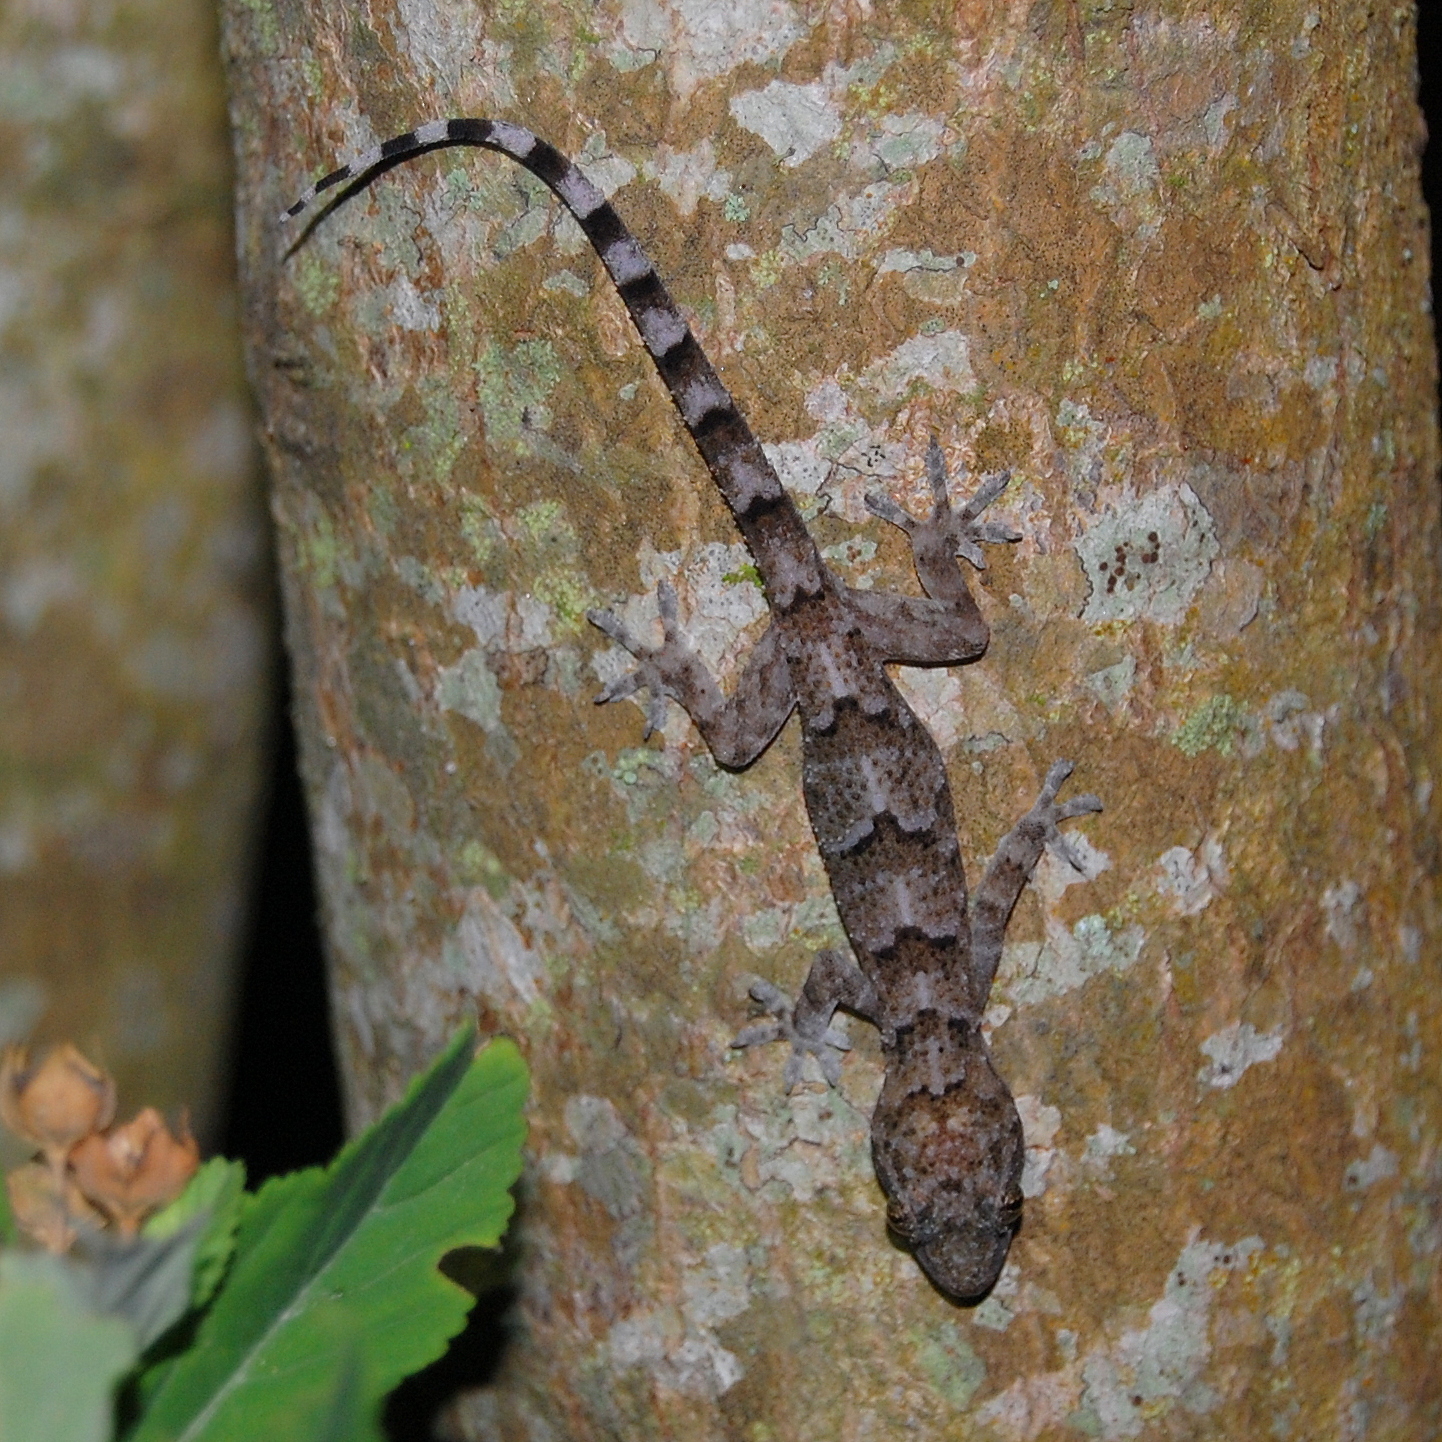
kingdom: Animalia
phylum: Chordata
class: Squamata
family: Gekkonidae
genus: Hemidactylus
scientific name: Hemidactylus mabouia
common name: House gecko
